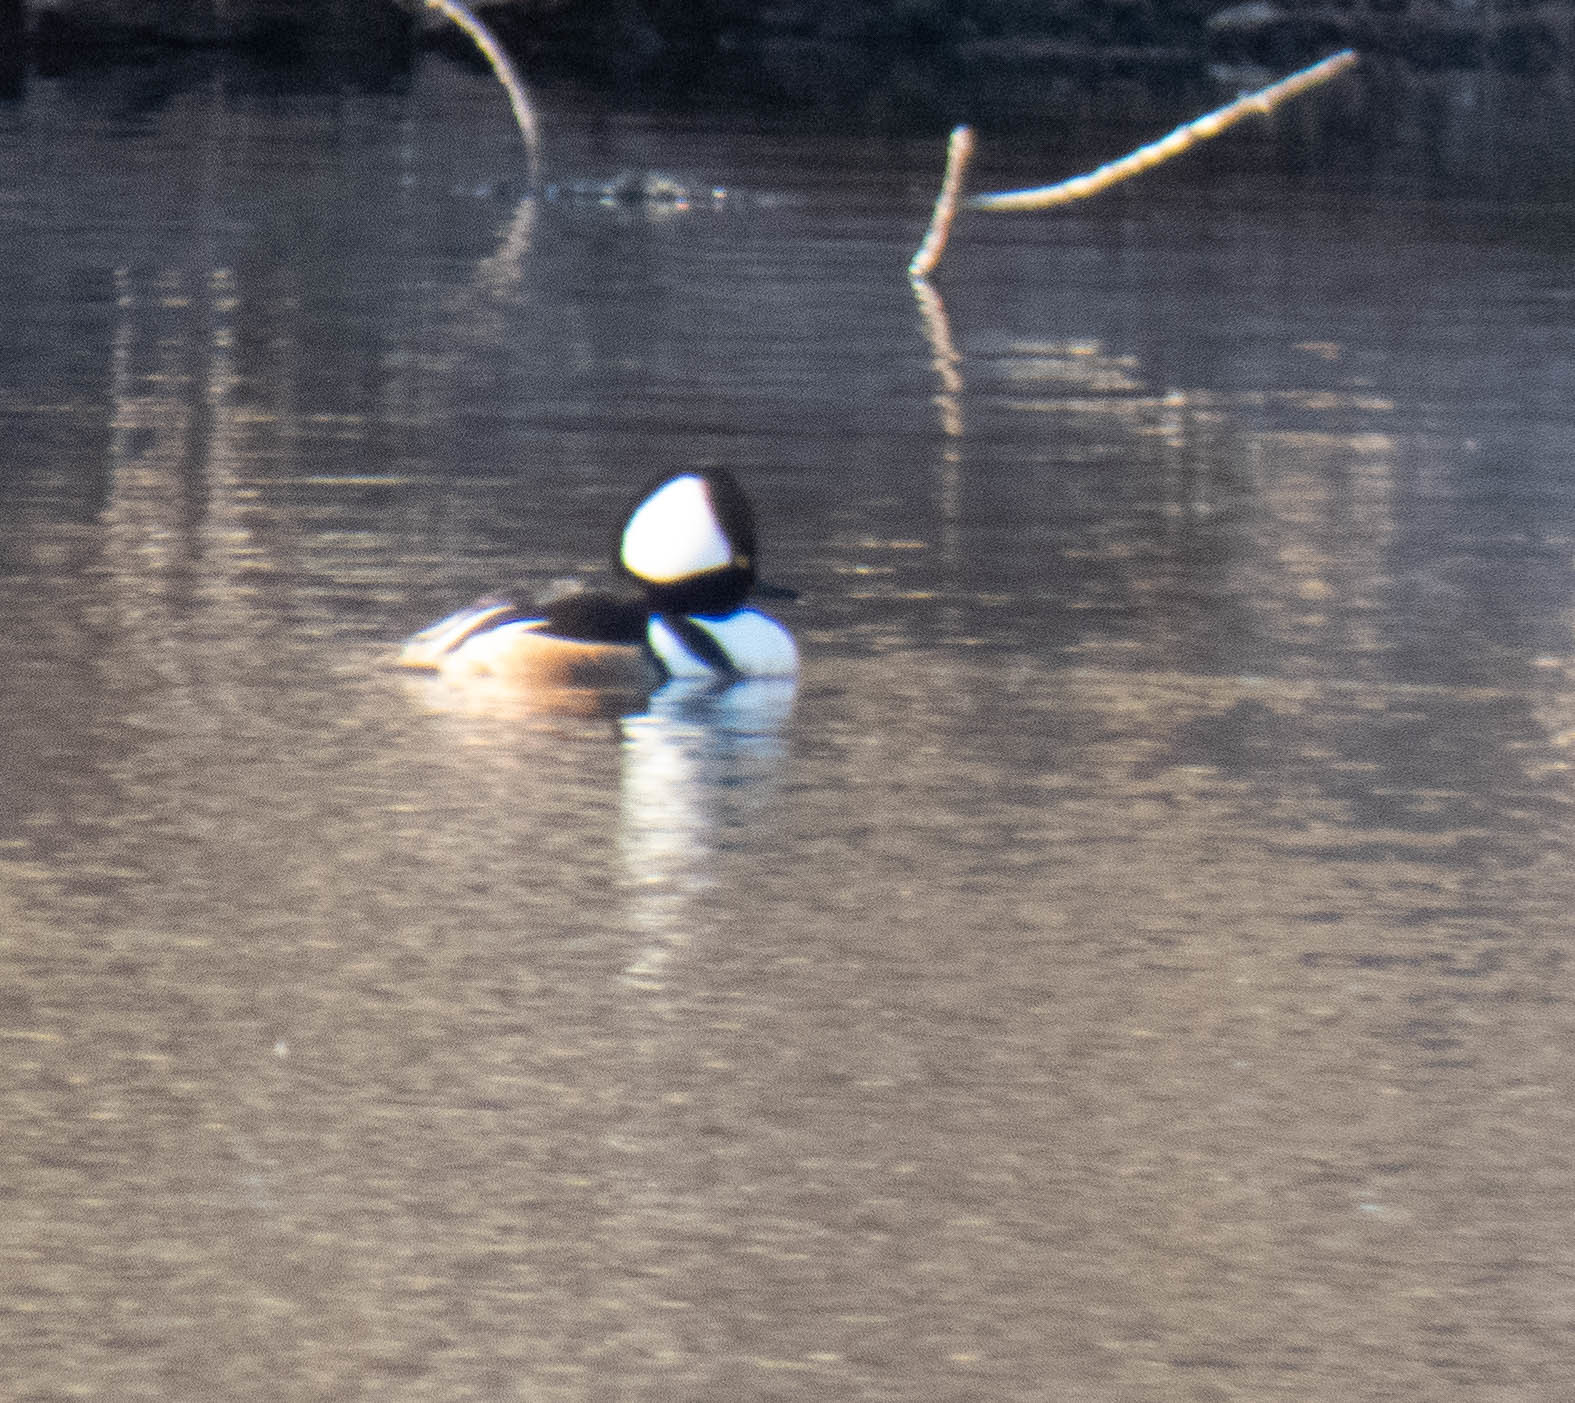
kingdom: Animalia
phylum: Chordata
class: Aves
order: Anseriformes
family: Anatidae
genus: Lophodytes
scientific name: Lophodytes cucullatus
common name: Hooded merganser
